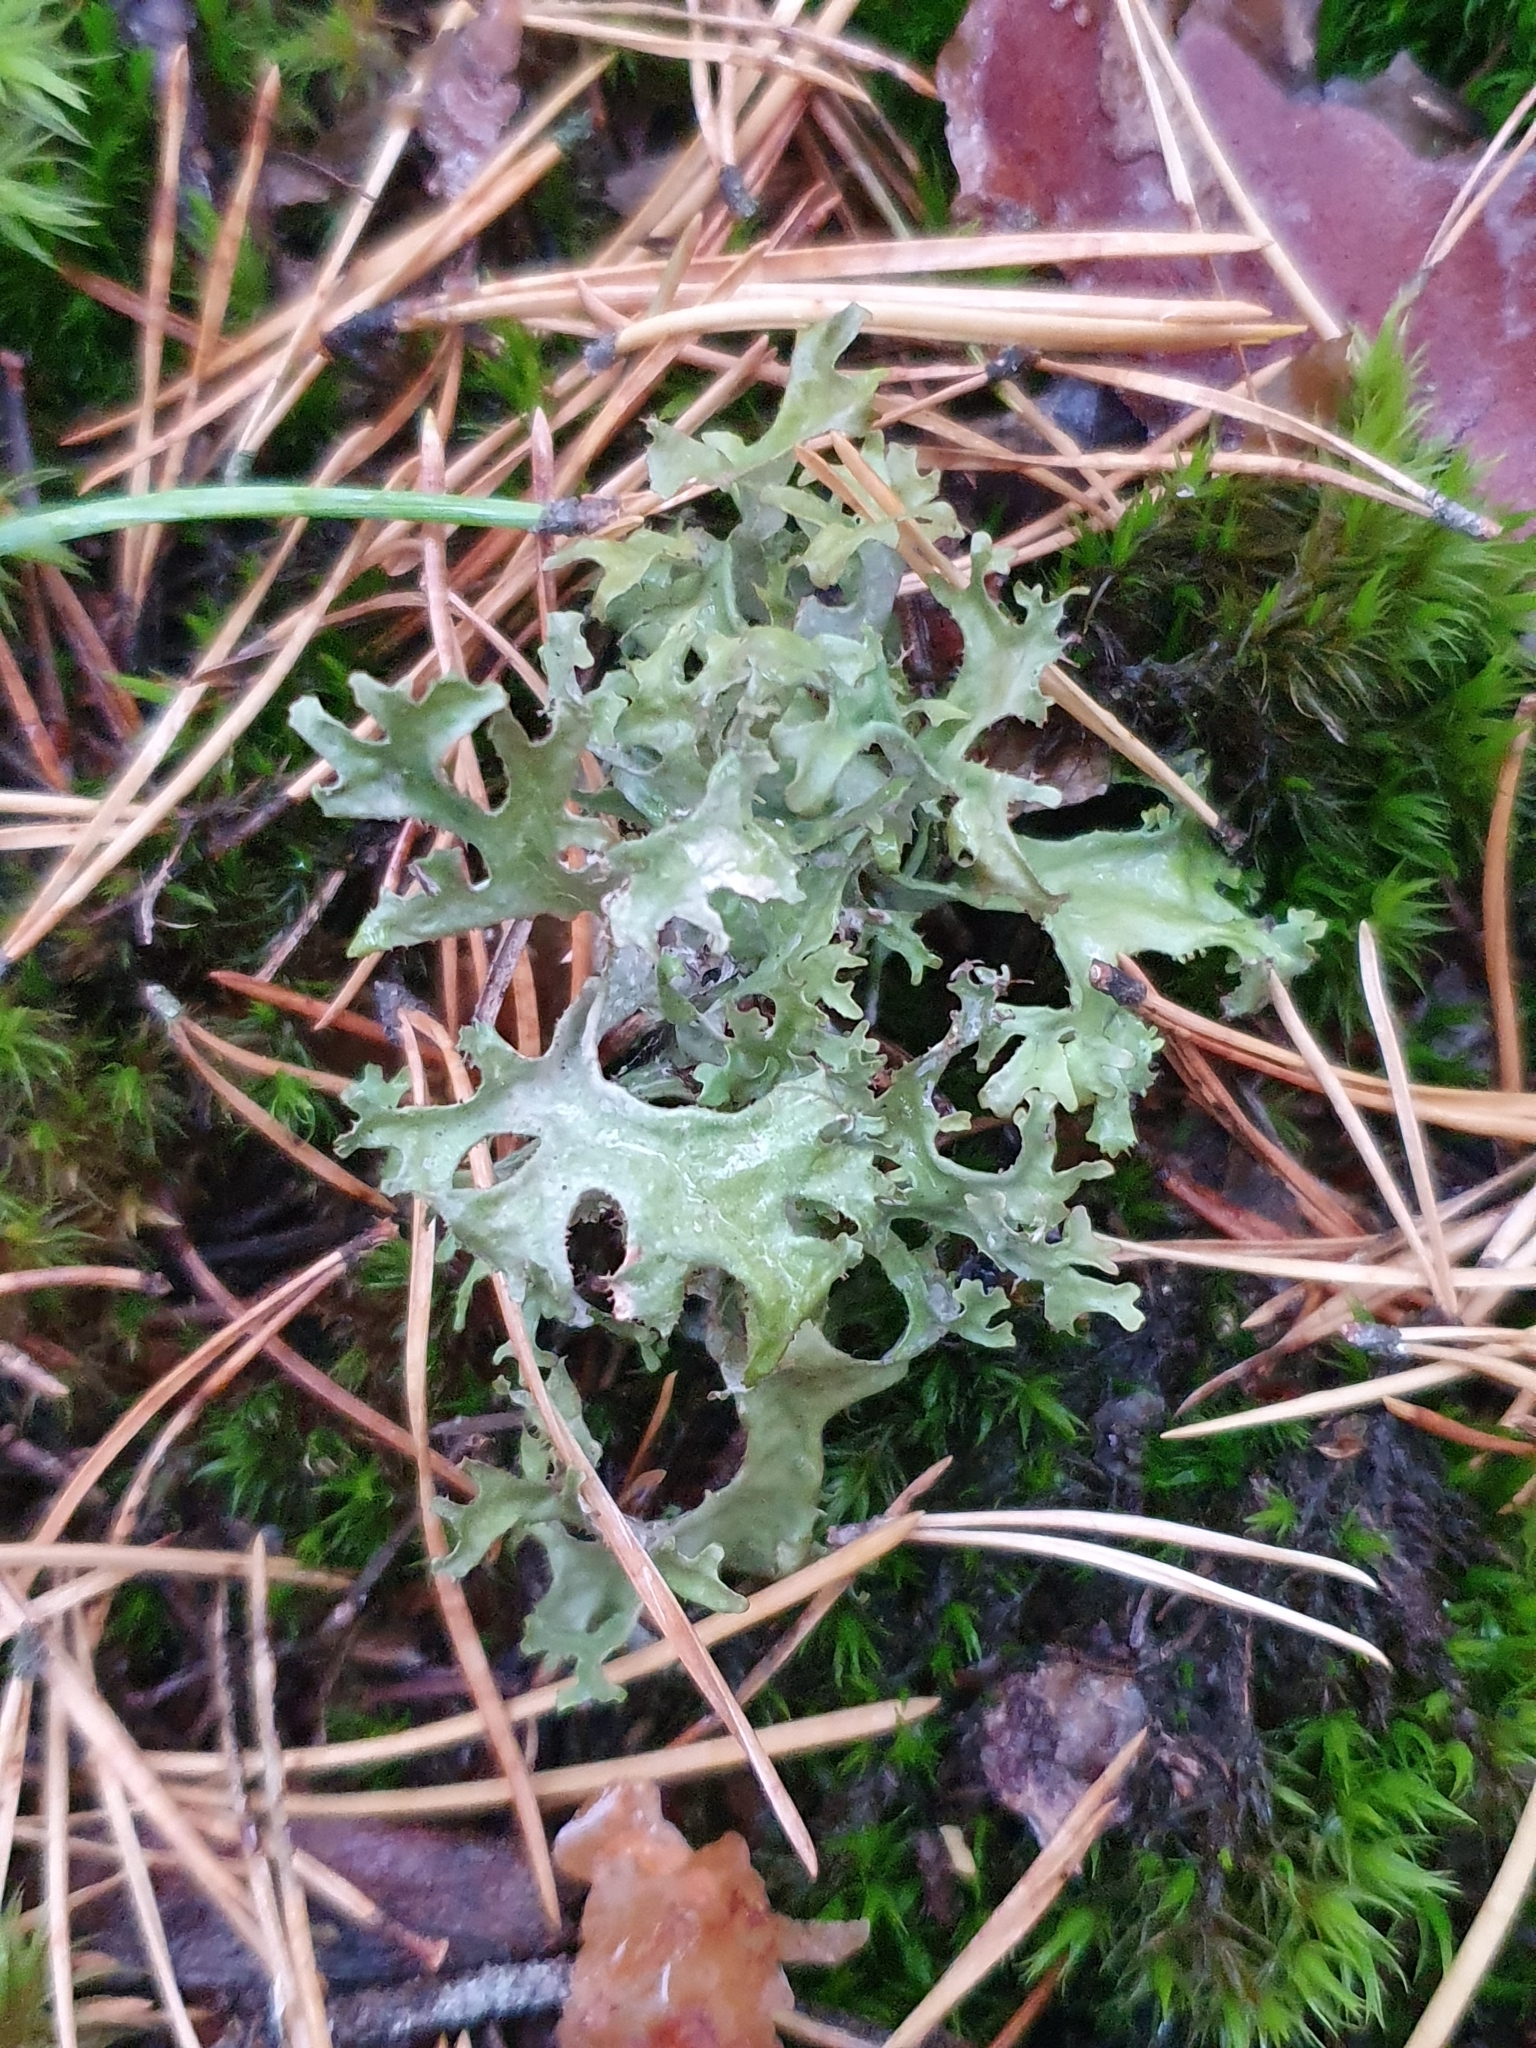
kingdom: Fungi
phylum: Ascomycota
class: Lecanoromycetes
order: Lecanorales
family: Parmeliaceae
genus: Cetraria
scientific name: Cetraria islandica
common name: Iceland lichen
